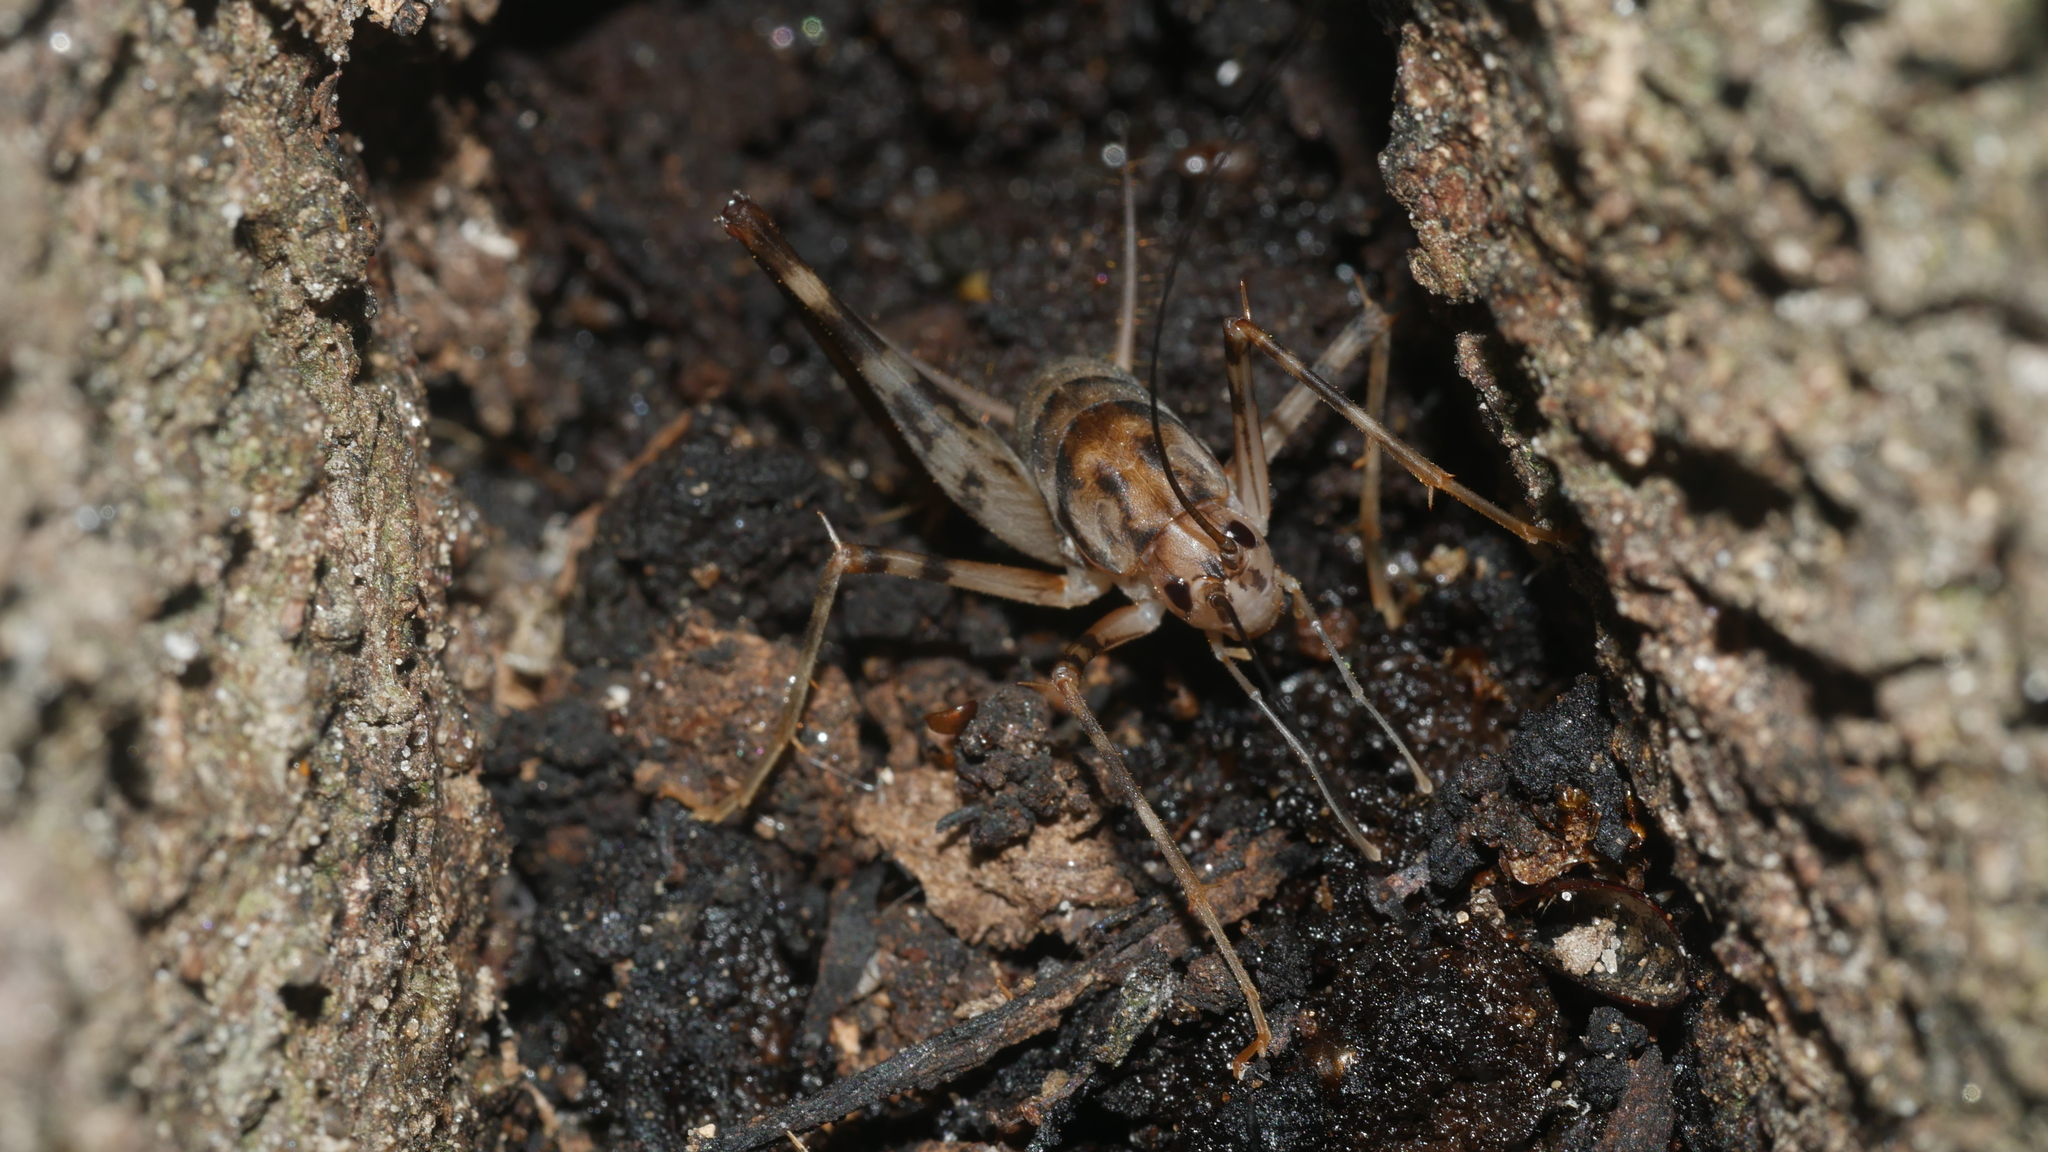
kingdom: Animalia
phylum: Arthropoda
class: Insecta
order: Orthoptera
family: Rhaphidophoridae
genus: Tachycines
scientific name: Tachycines asynamorus
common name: Greenhouse camel cricket
